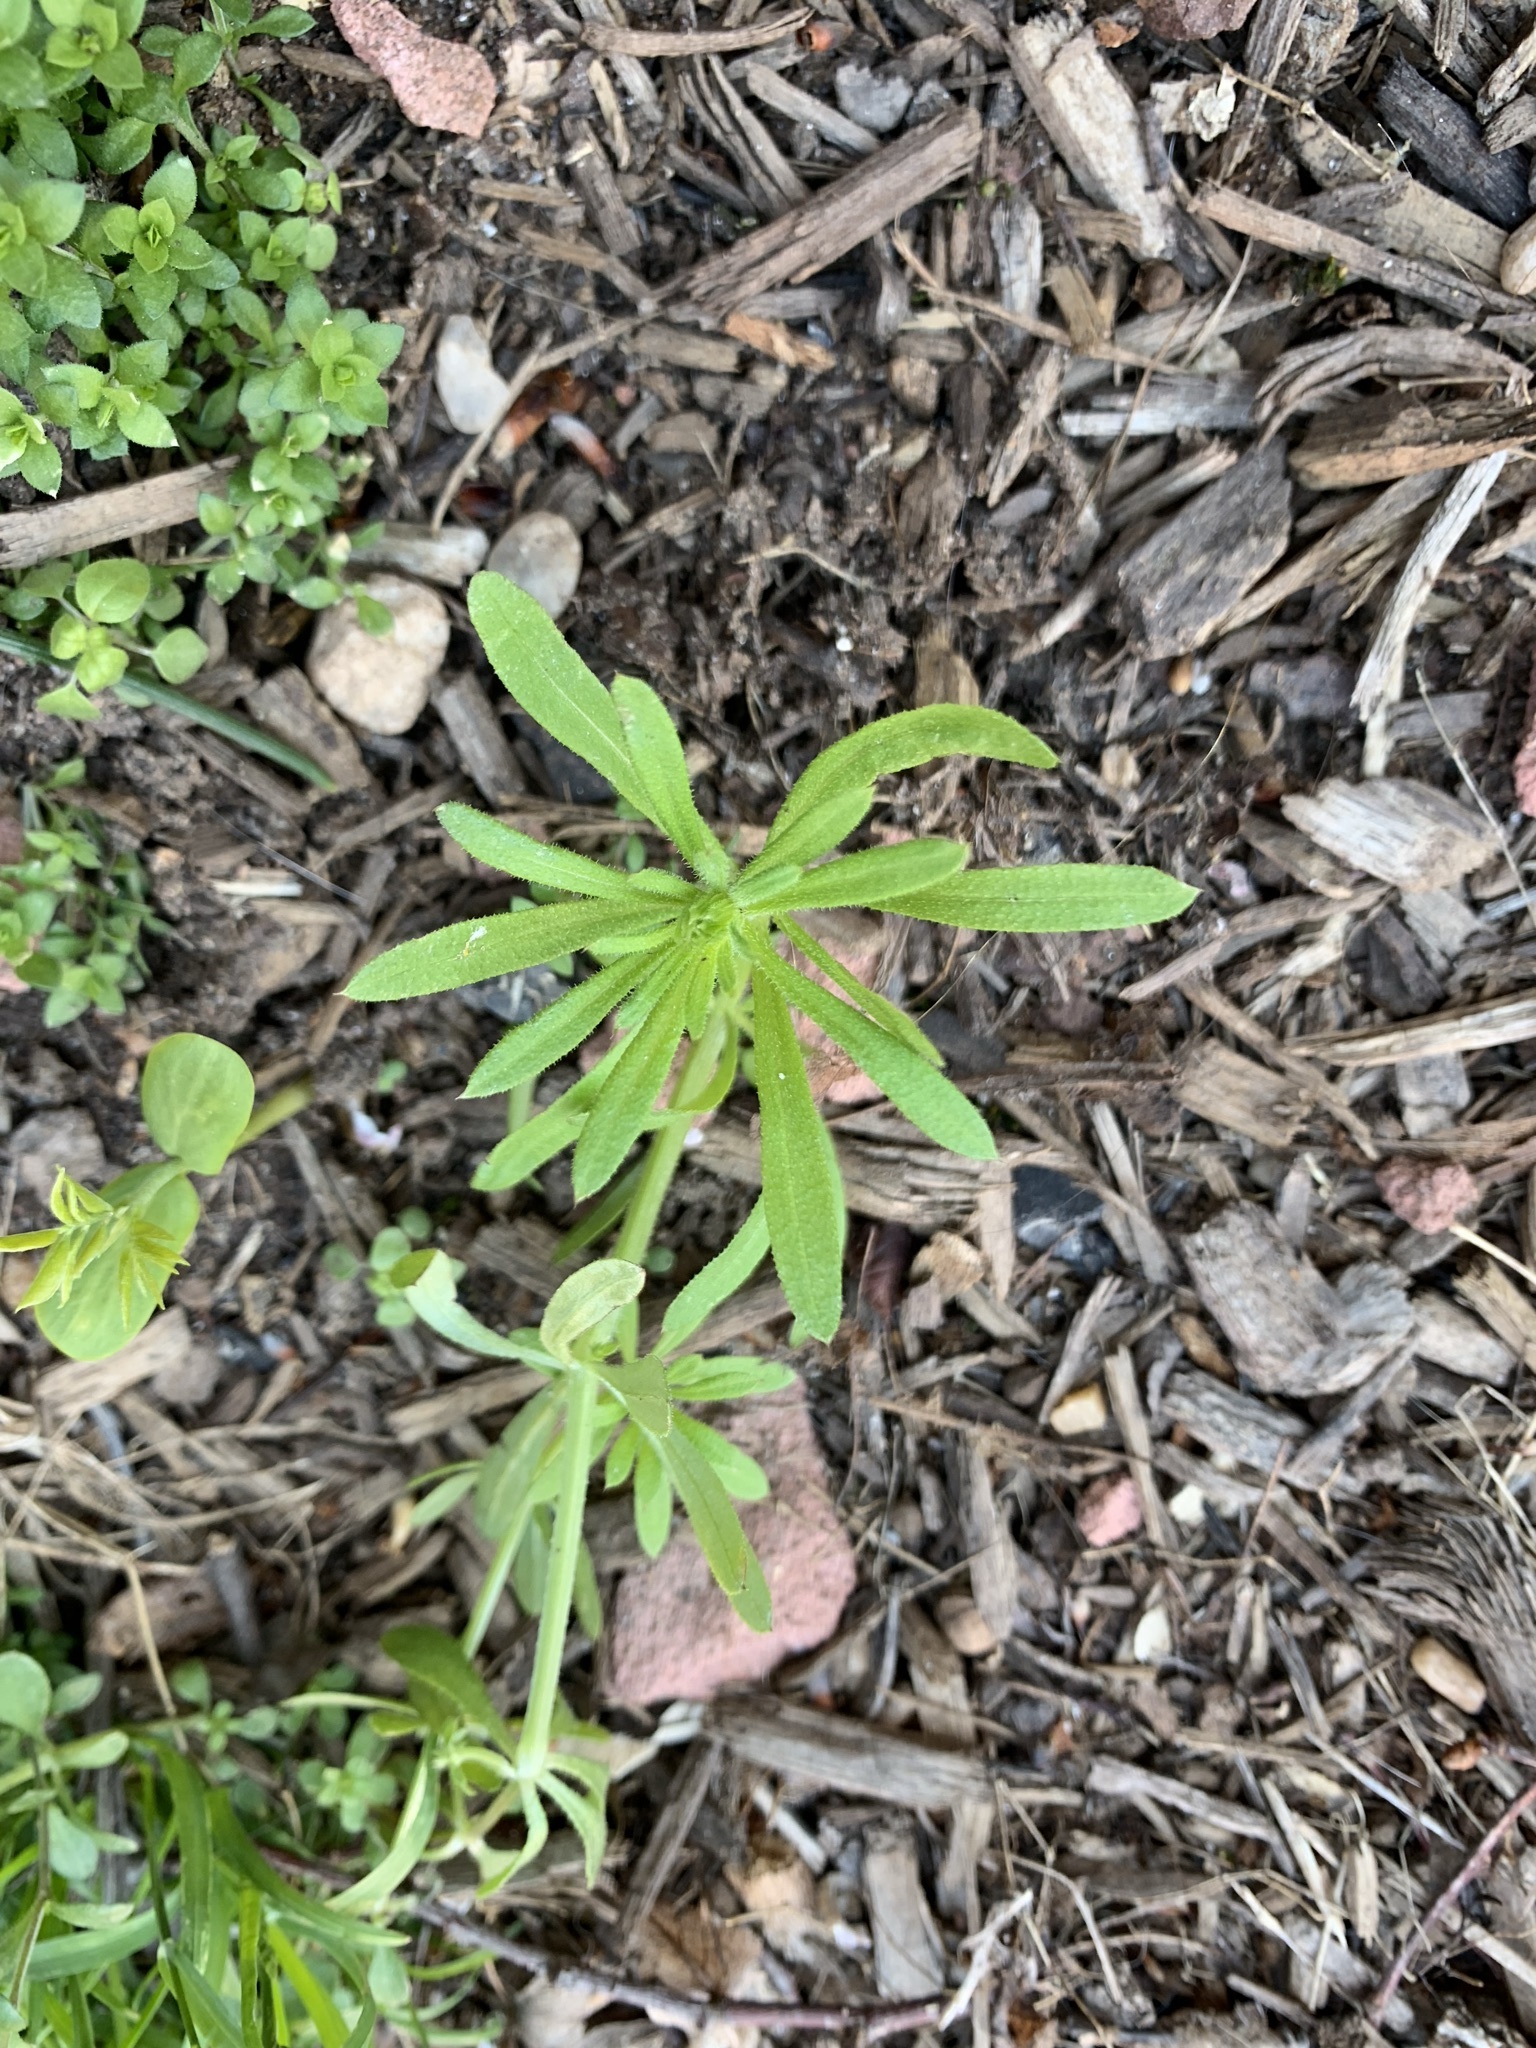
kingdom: Plantae
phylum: Tracheophyta
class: Magnoliopsida
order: Gentianales
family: Rubiaceae
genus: Galium
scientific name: Galium aparine
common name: Cleavers
